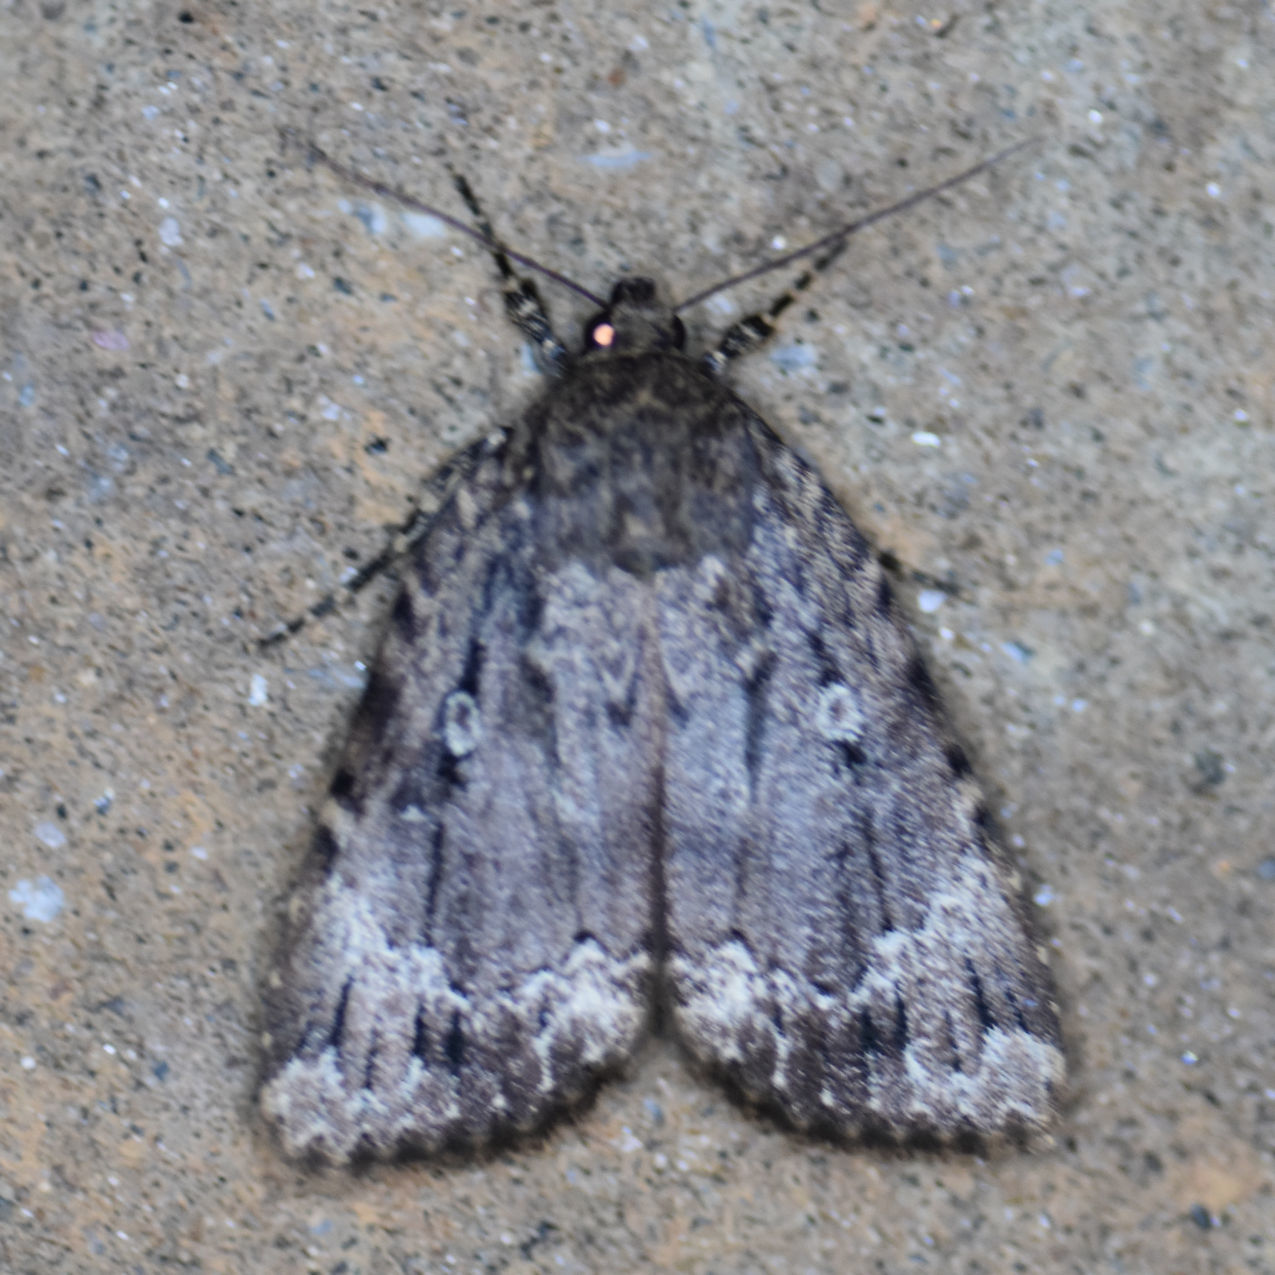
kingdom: Animalia
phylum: Arthropoda
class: Insecta
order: Lepidoptera
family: Noctuidae
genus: Amphipyra
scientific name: Amphipyra pyramidoides
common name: American copper underwing
